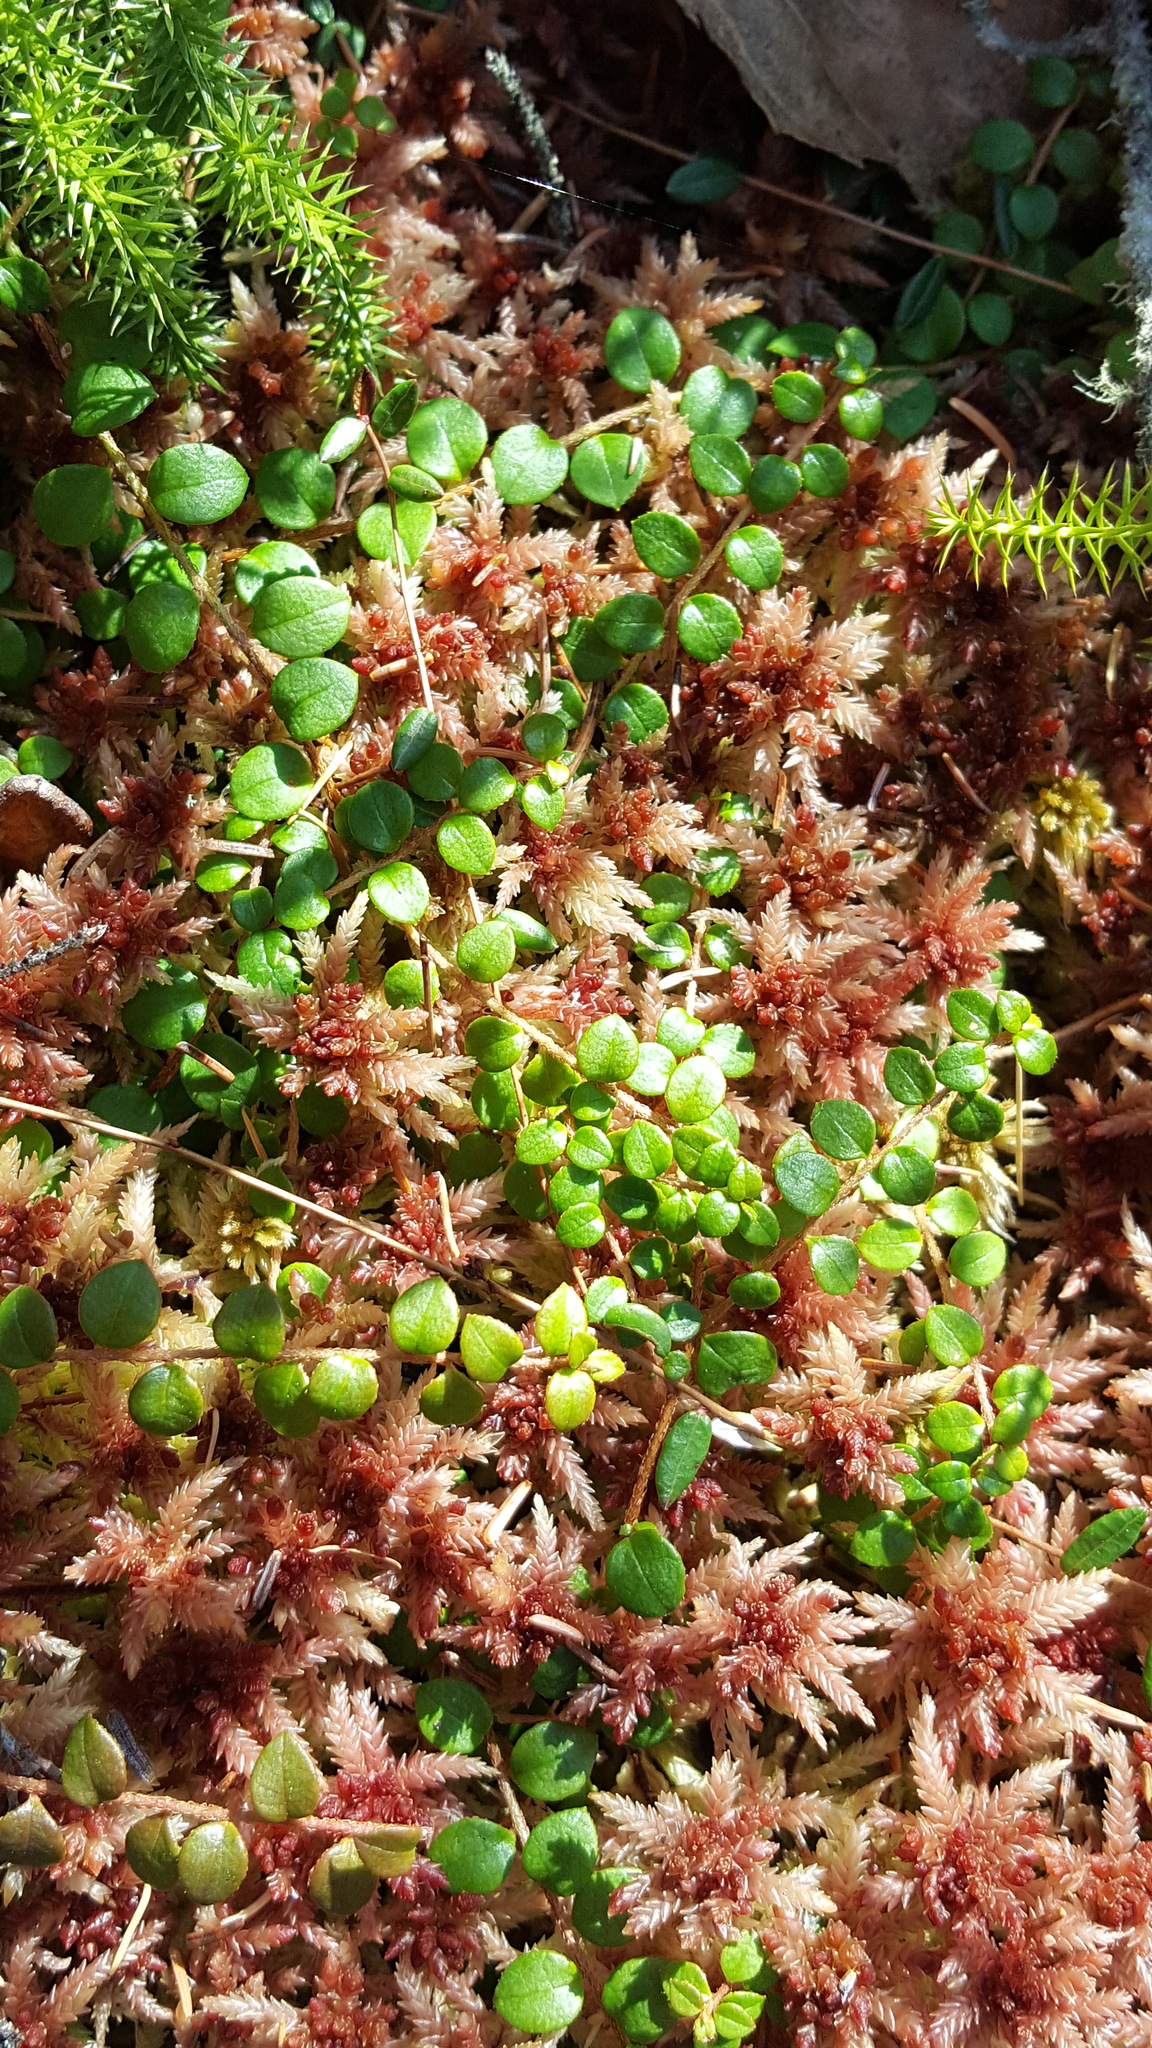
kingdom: Plantae
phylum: Tracheophyta
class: Magnoliopsida
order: Ericales
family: Ericaceae
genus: Gaultheria
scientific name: Gaultheria hispidula
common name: Cancer wintergreen
